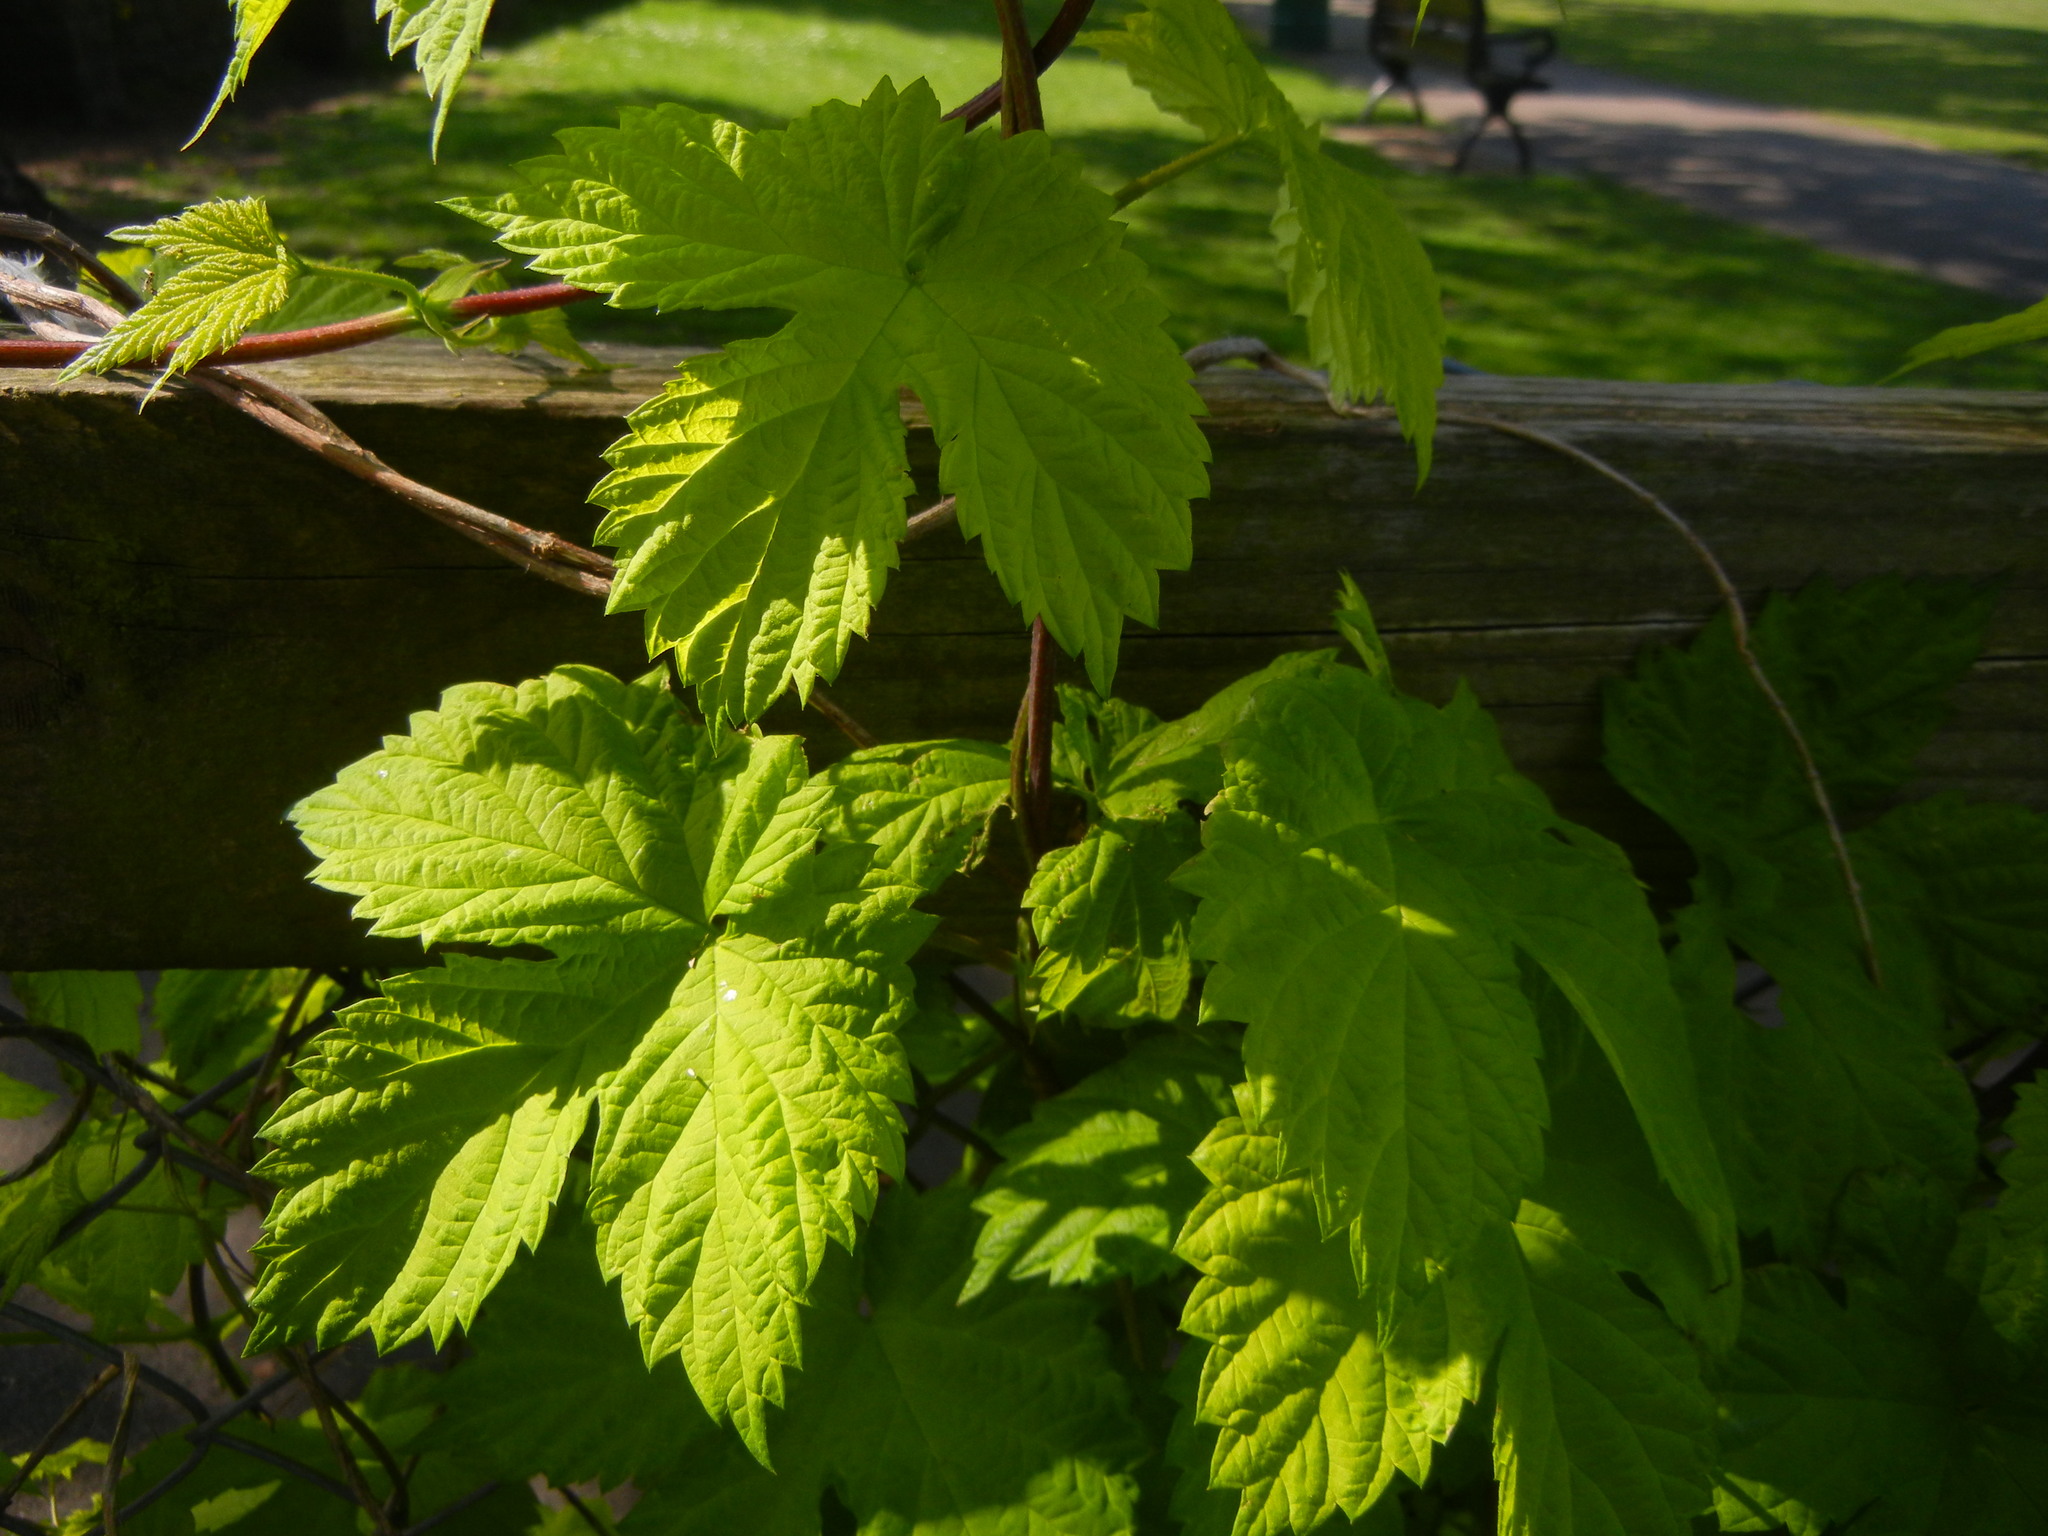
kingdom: Plantae
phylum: Tracheophyta
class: Magnoliopsida
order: Rosales
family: Cannabaceae
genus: Humulus
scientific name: Humulus lupulus
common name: Hop
